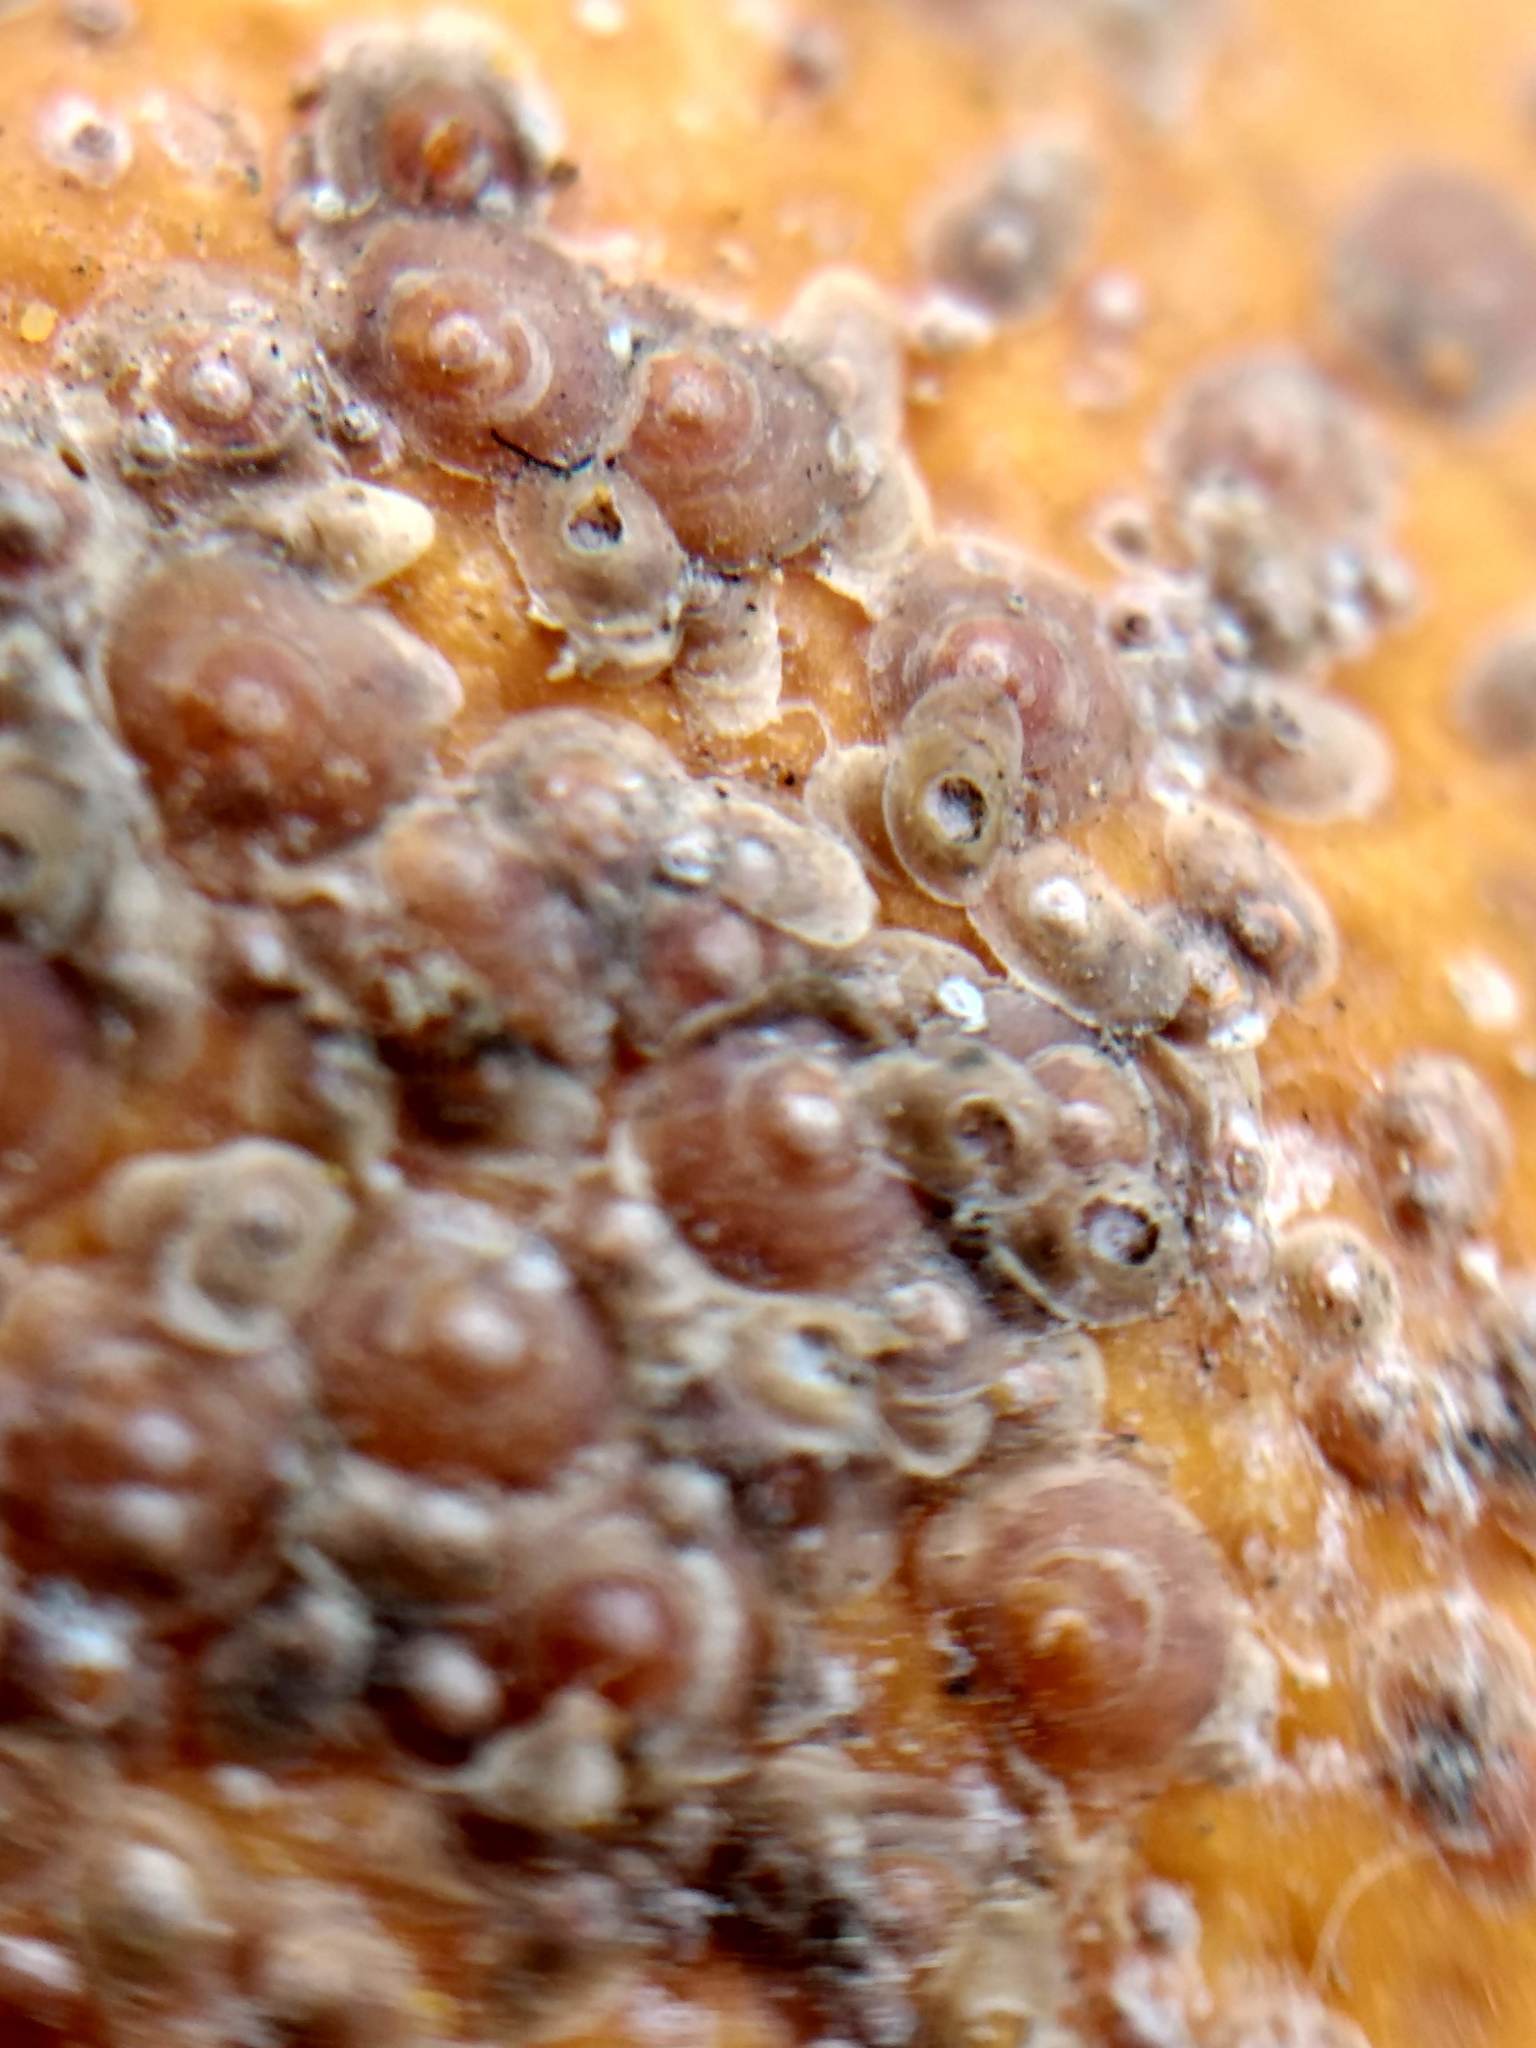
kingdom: Animalia
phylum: Arthropoda
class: Insecta
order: Hemiptera
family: Diaspididae
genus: Aonidiella
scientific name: Aonidiella aurantii
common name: California red scale
